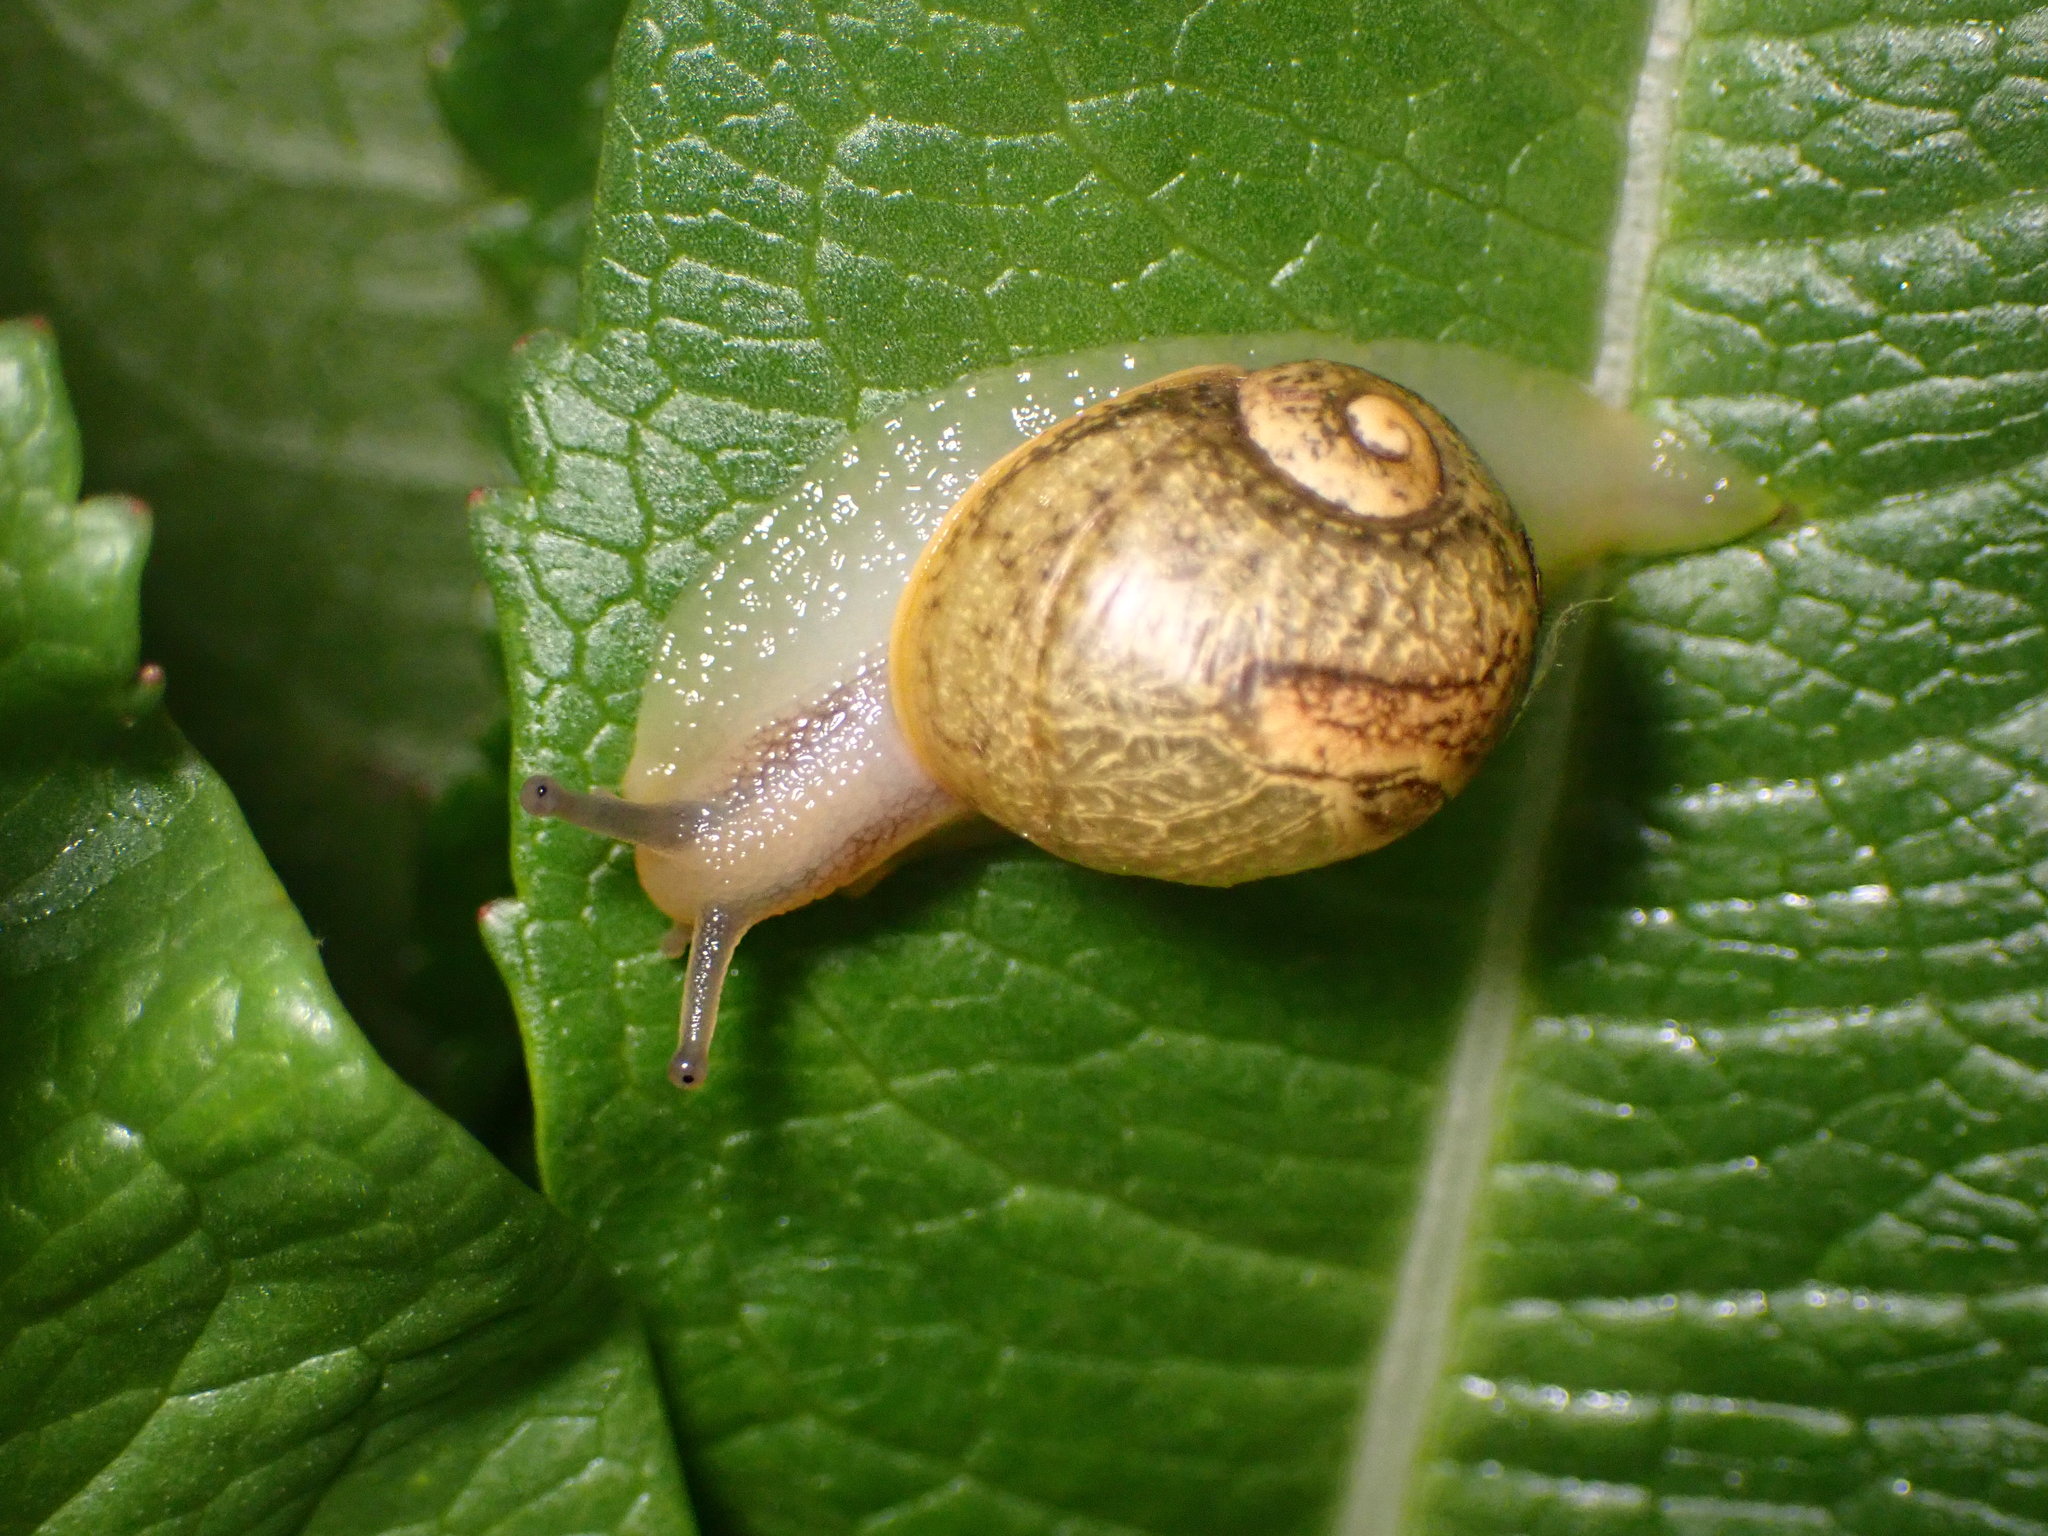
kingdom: Animalia
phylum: Mollusca
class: Gastropoda
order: Stylommatophora
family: Helicidae
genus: Cantareus
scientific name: Cantareus apertus
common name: Green gardensnail
